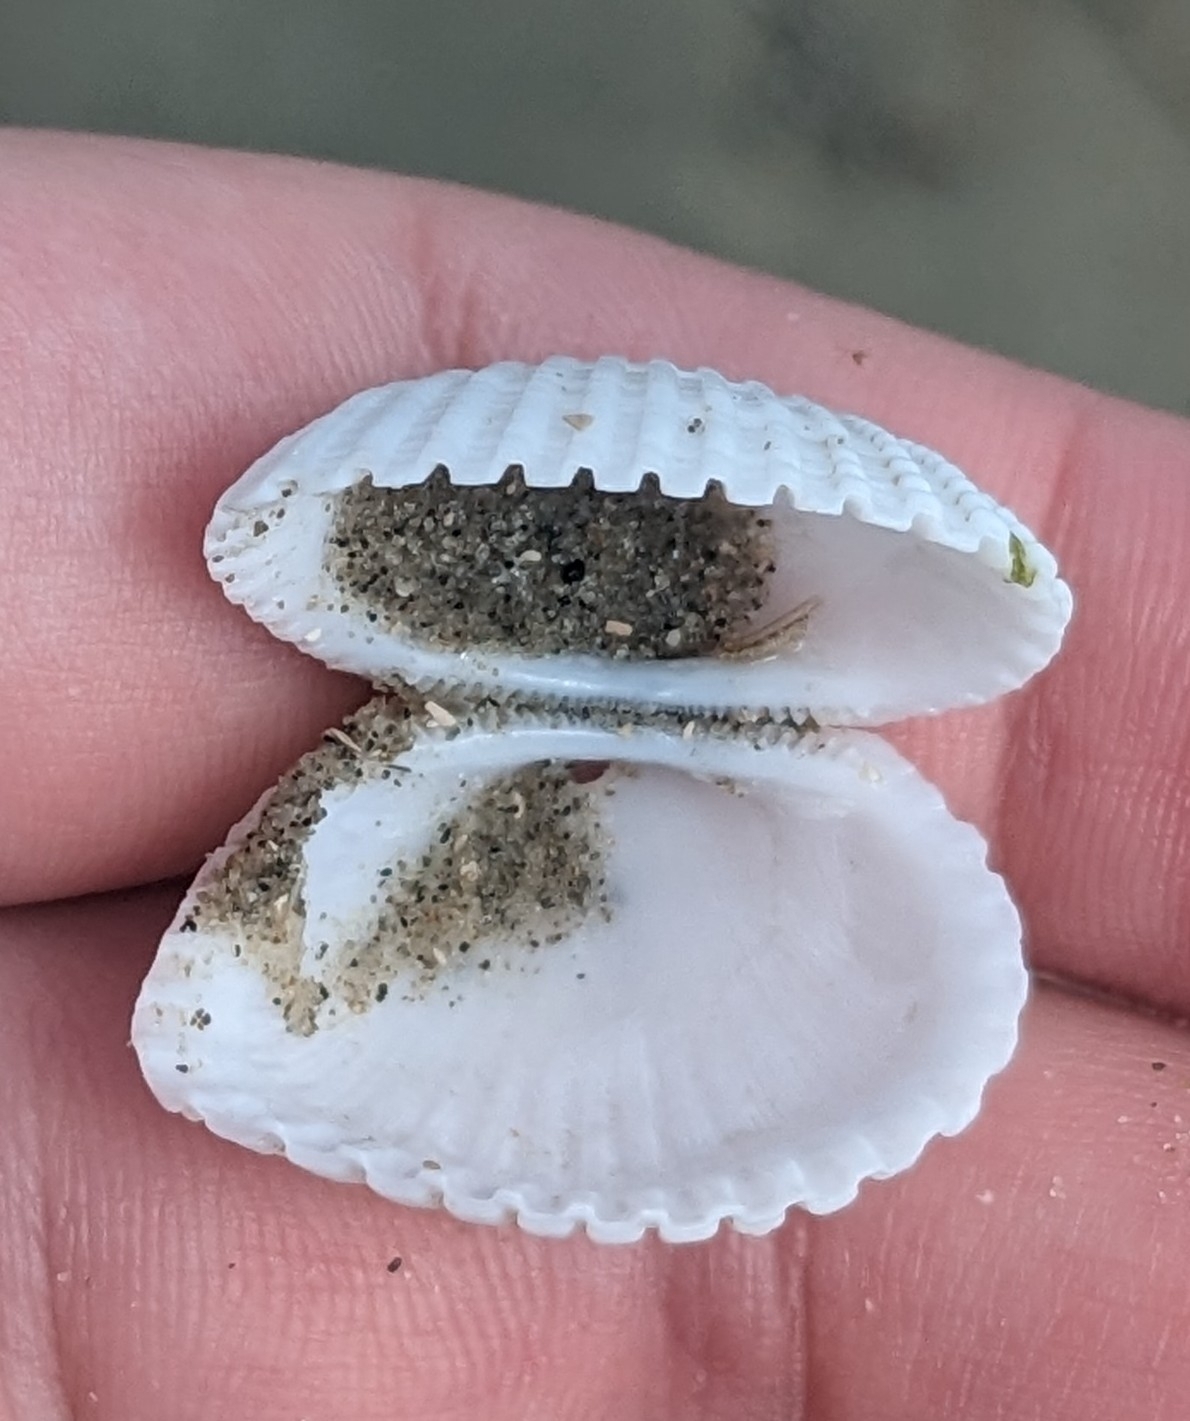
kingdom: Animalia
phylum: Mollusca
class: Bivalvia
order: Arcida
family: Arcidae
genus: Anadara
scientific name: Anadara brasiliana
